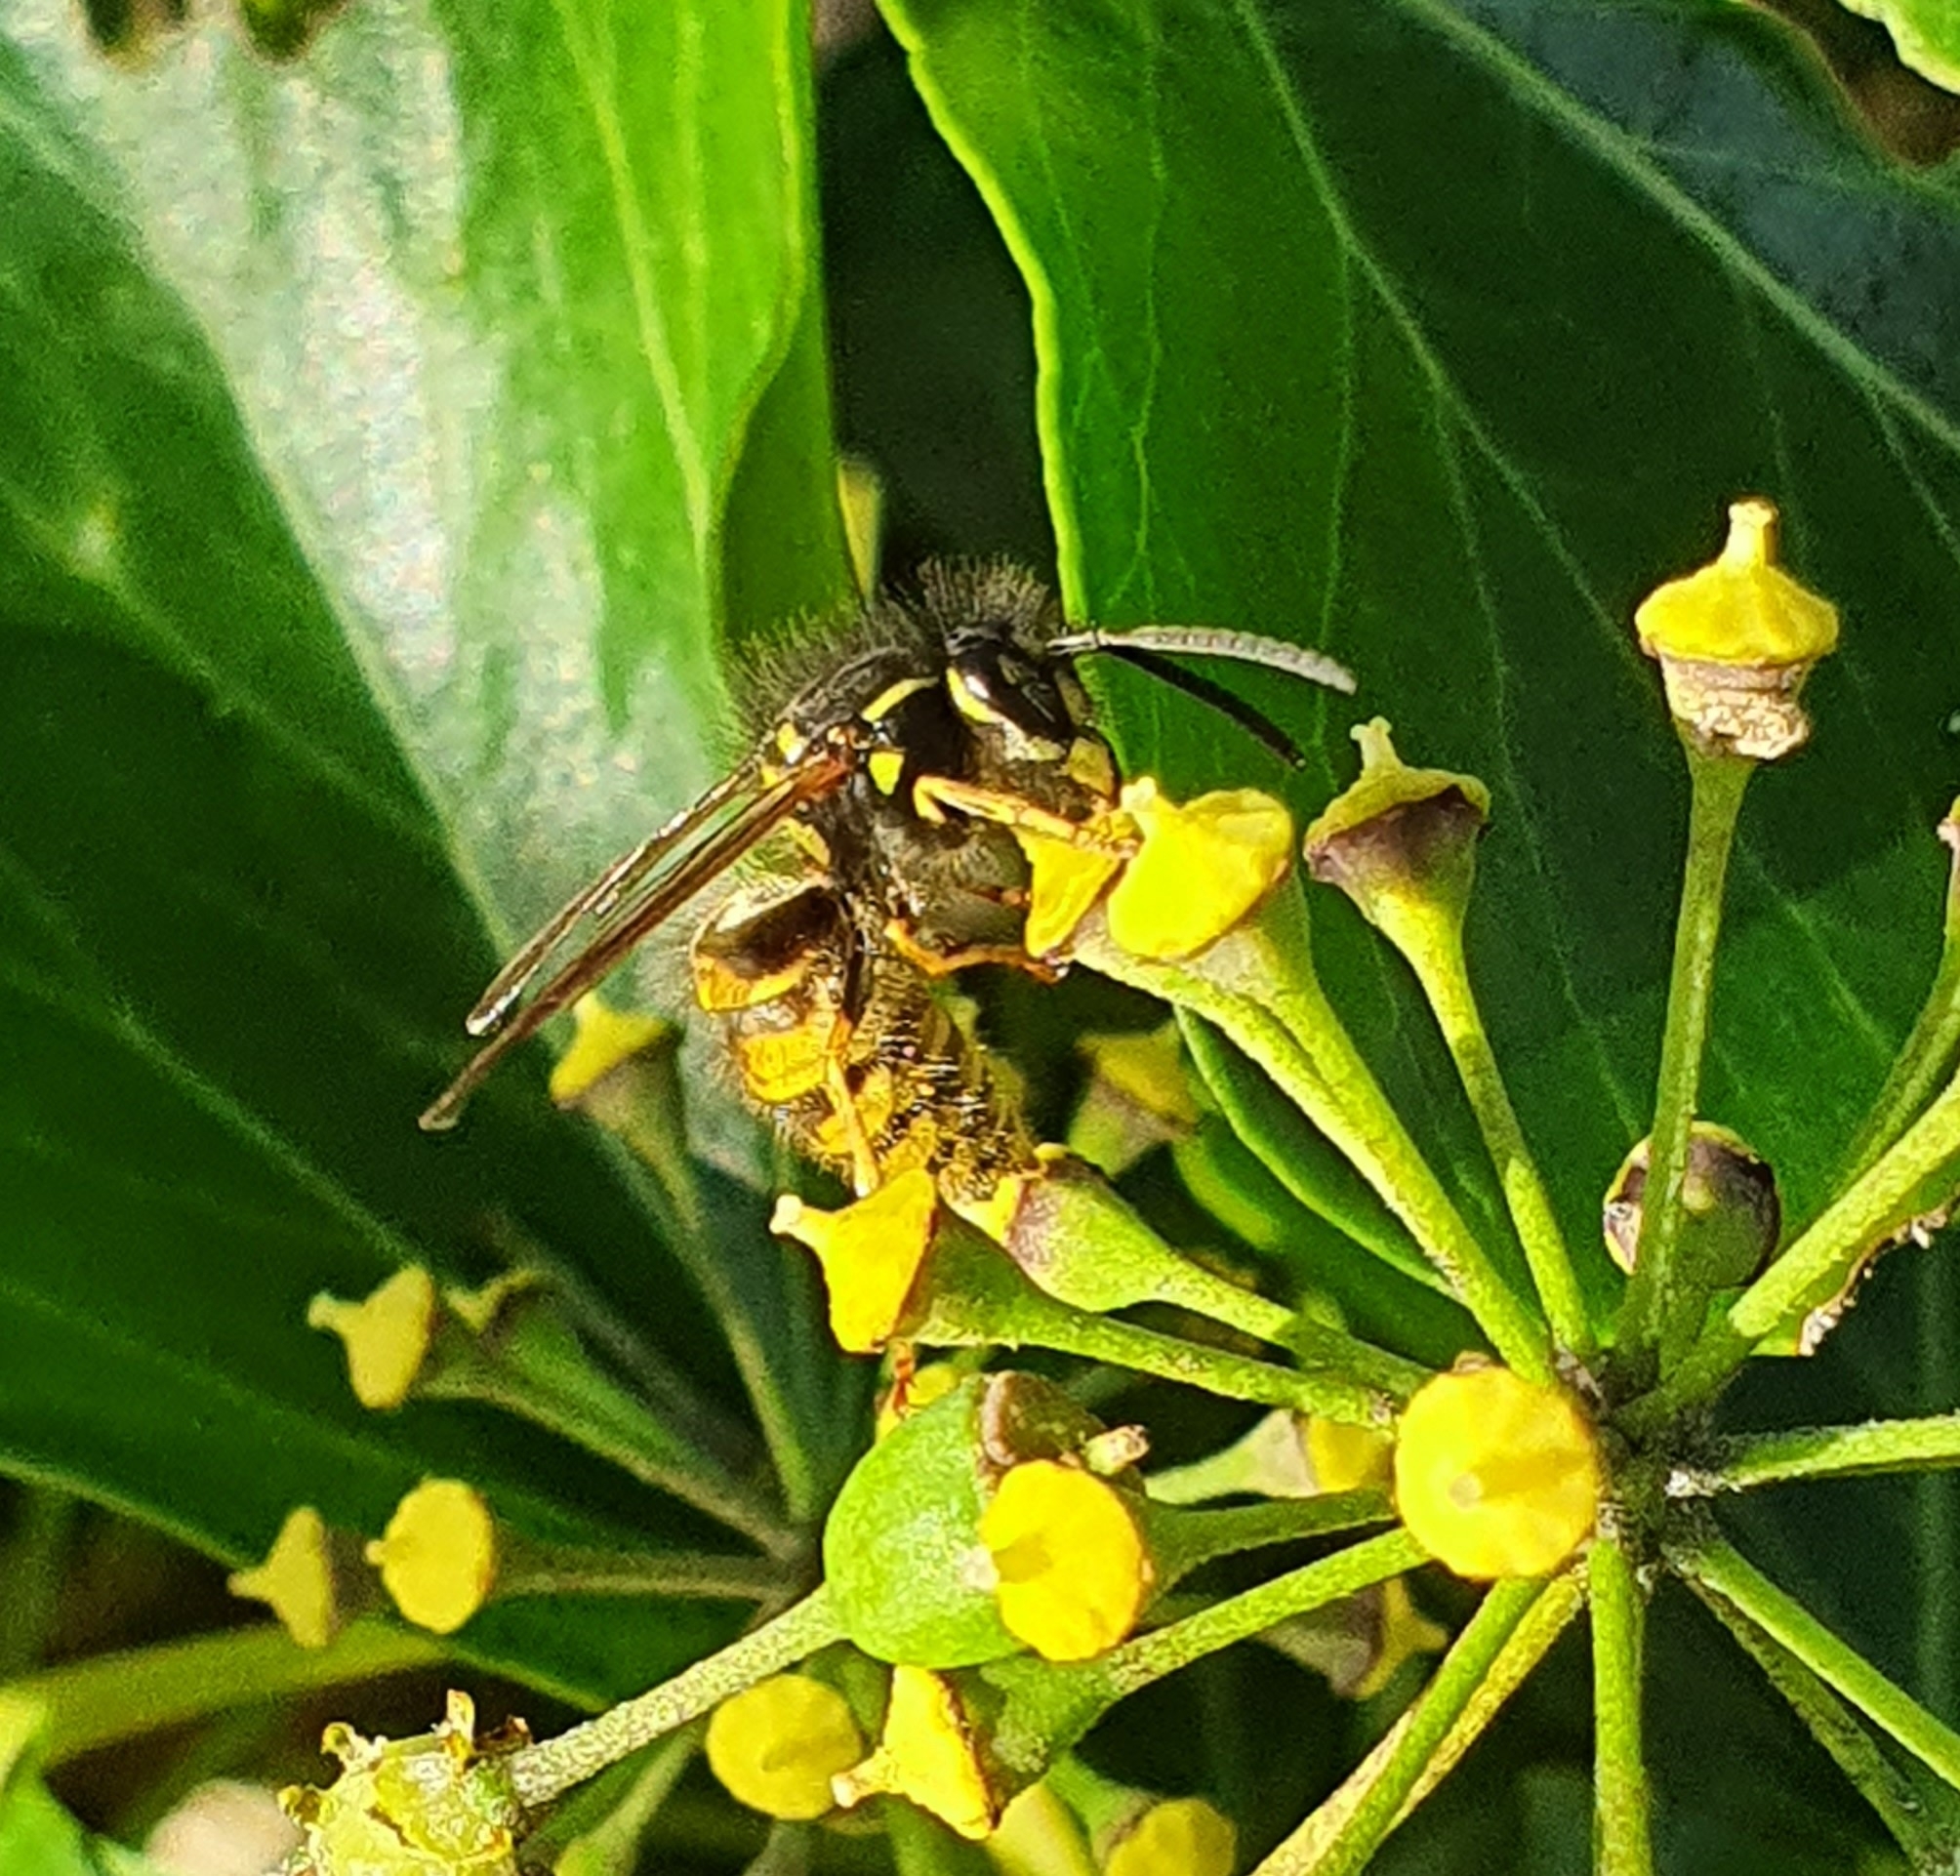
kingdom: Animalia
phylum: Arthropoda
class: Insecta
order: Hymenoptera
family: Vespidae
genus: Vespula
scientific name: Vespula vulgaris
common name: Common wasp
